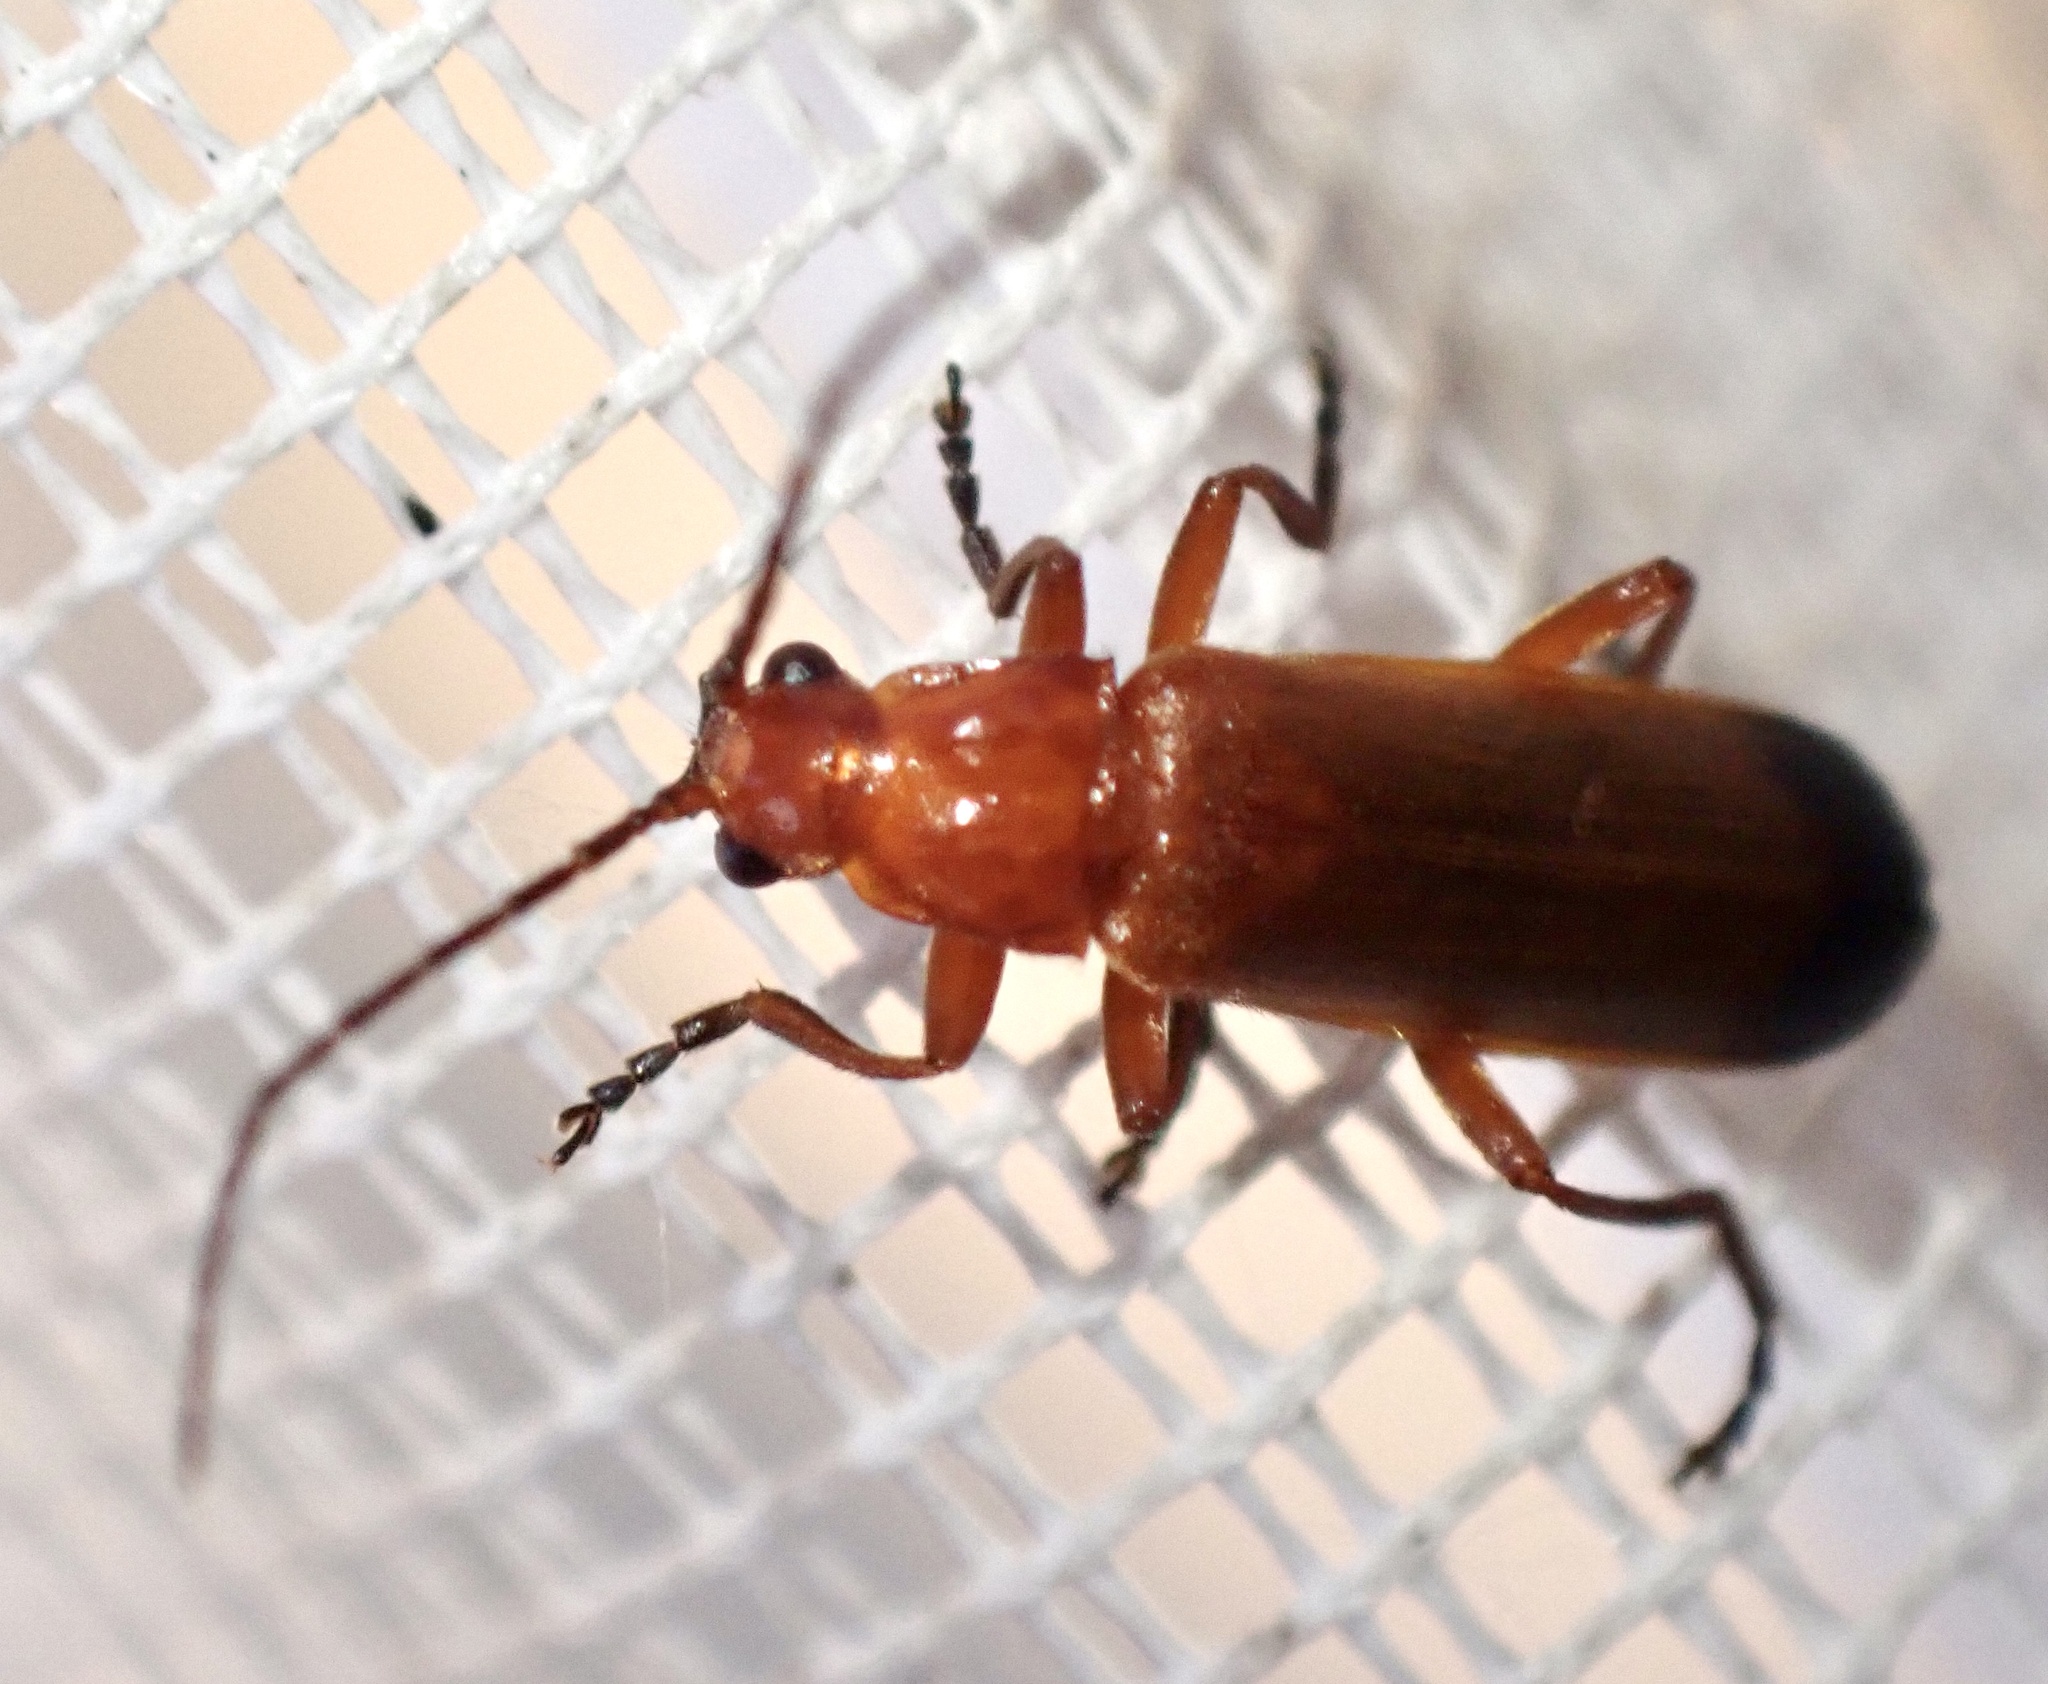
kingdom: Animalia
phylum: Arthropoda
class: Insecta
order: Coleoptera
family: Cantharidae
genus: Rhagonycha
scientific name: Rhagonycha fulva
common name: Common red soldier beetle
